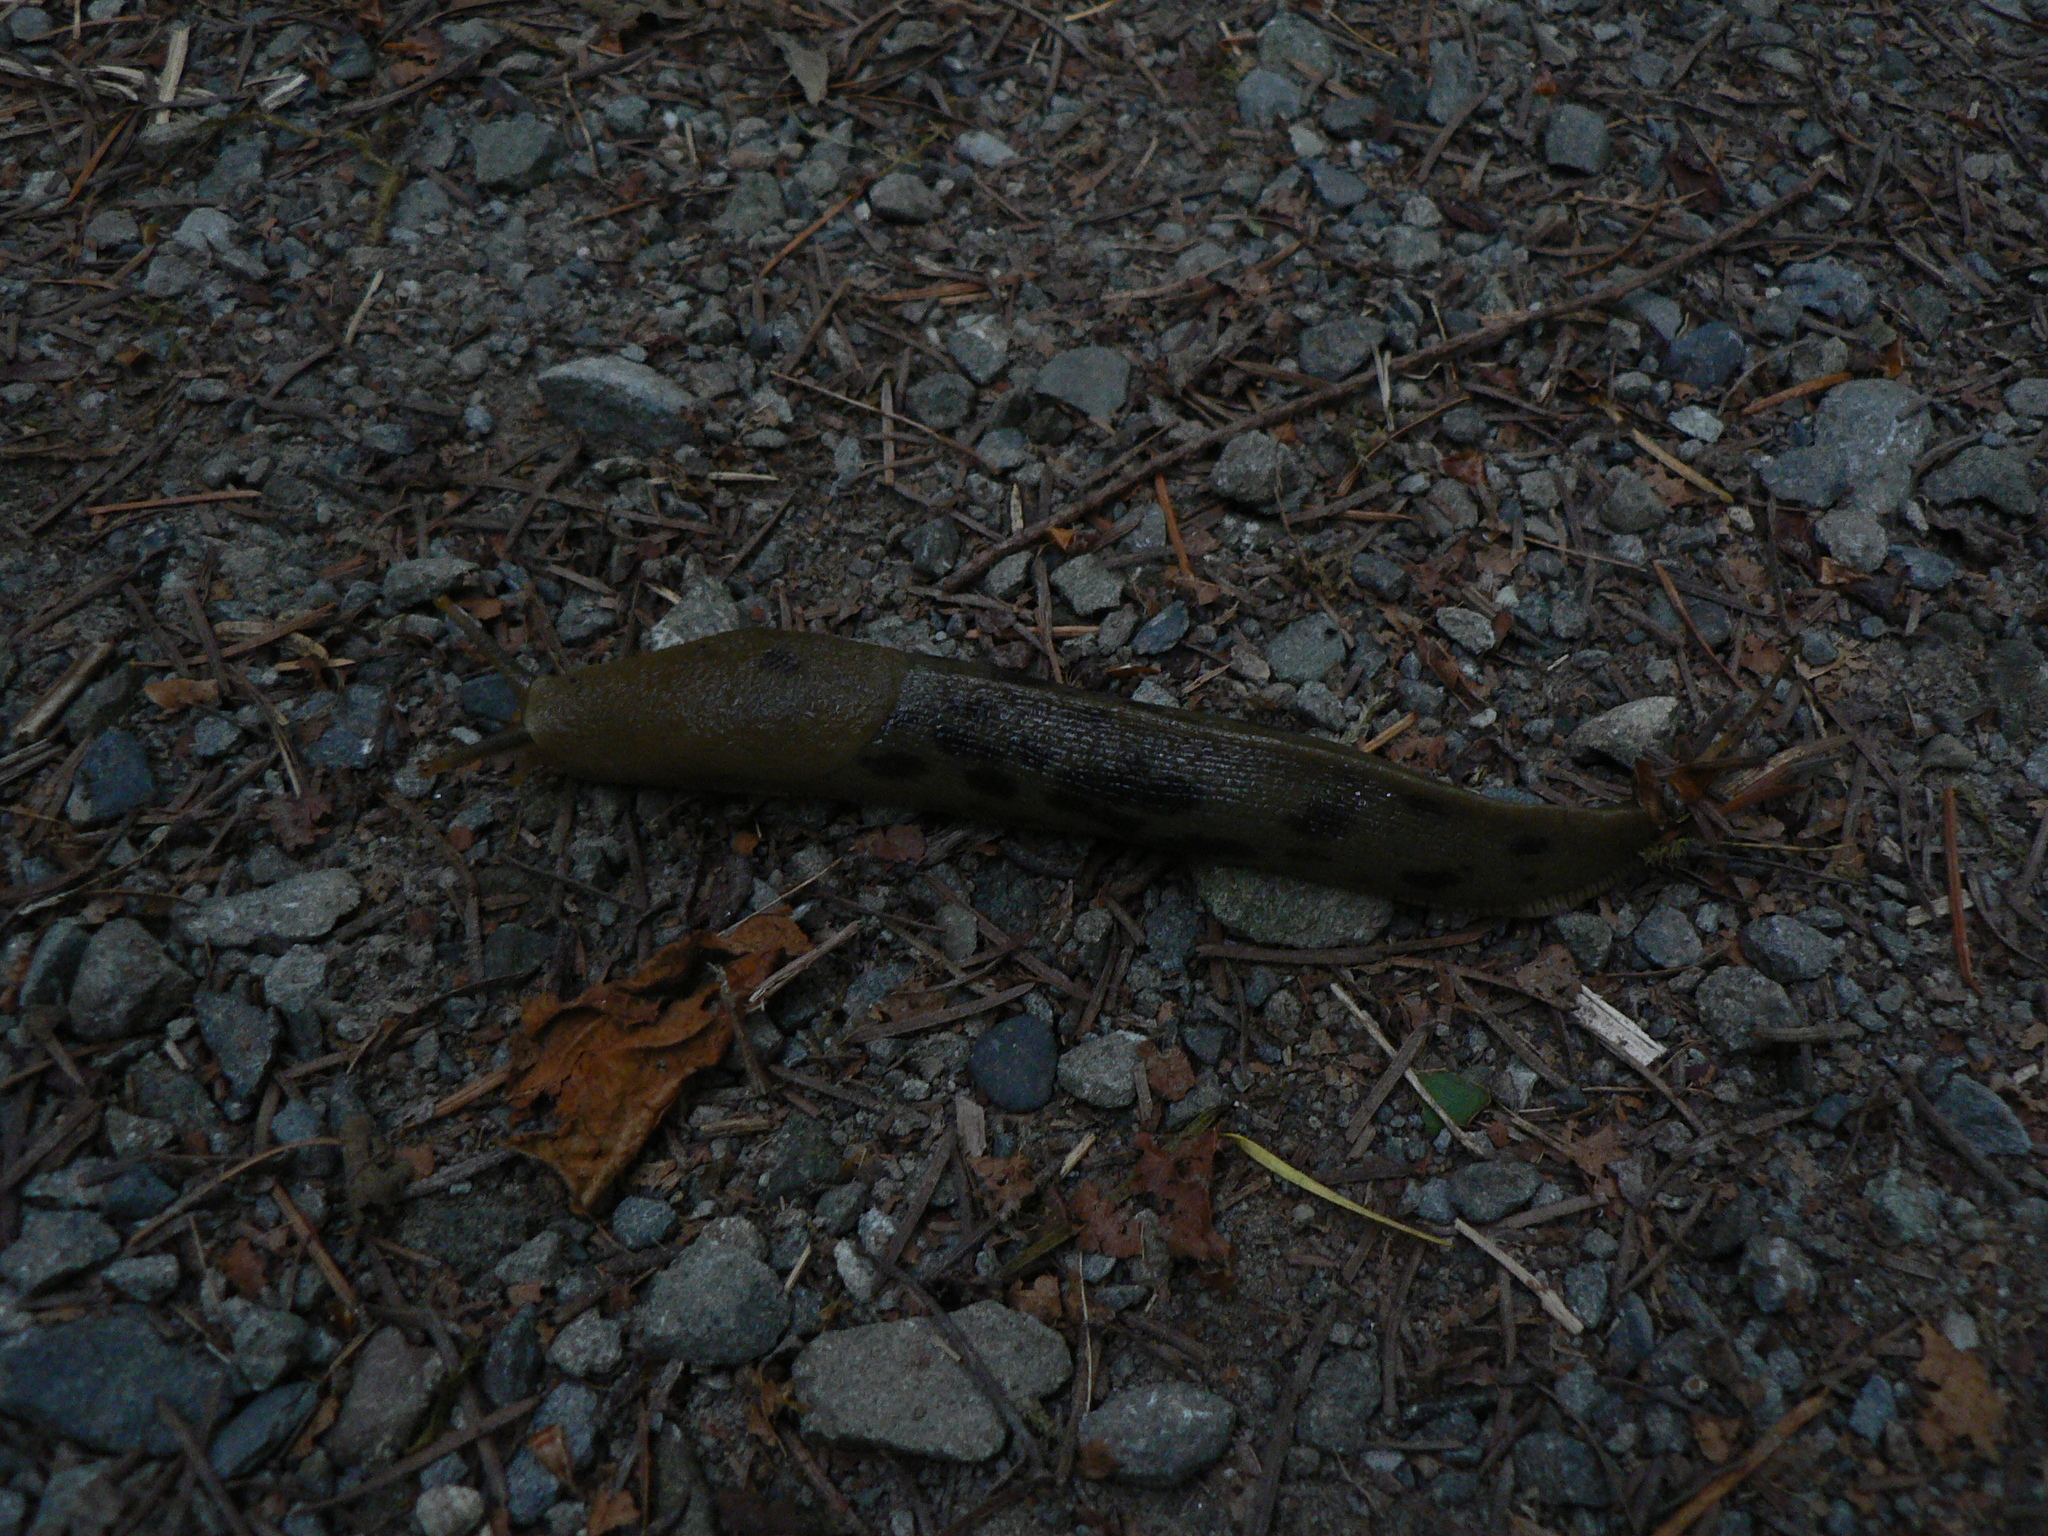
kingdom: Animalia
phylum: Mollusca
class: Gastropoda
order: Stylommatophora
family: Ariolimacidae
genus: Ariolimax
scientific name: Ariolimax columbianus
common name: Pacific banana slug
